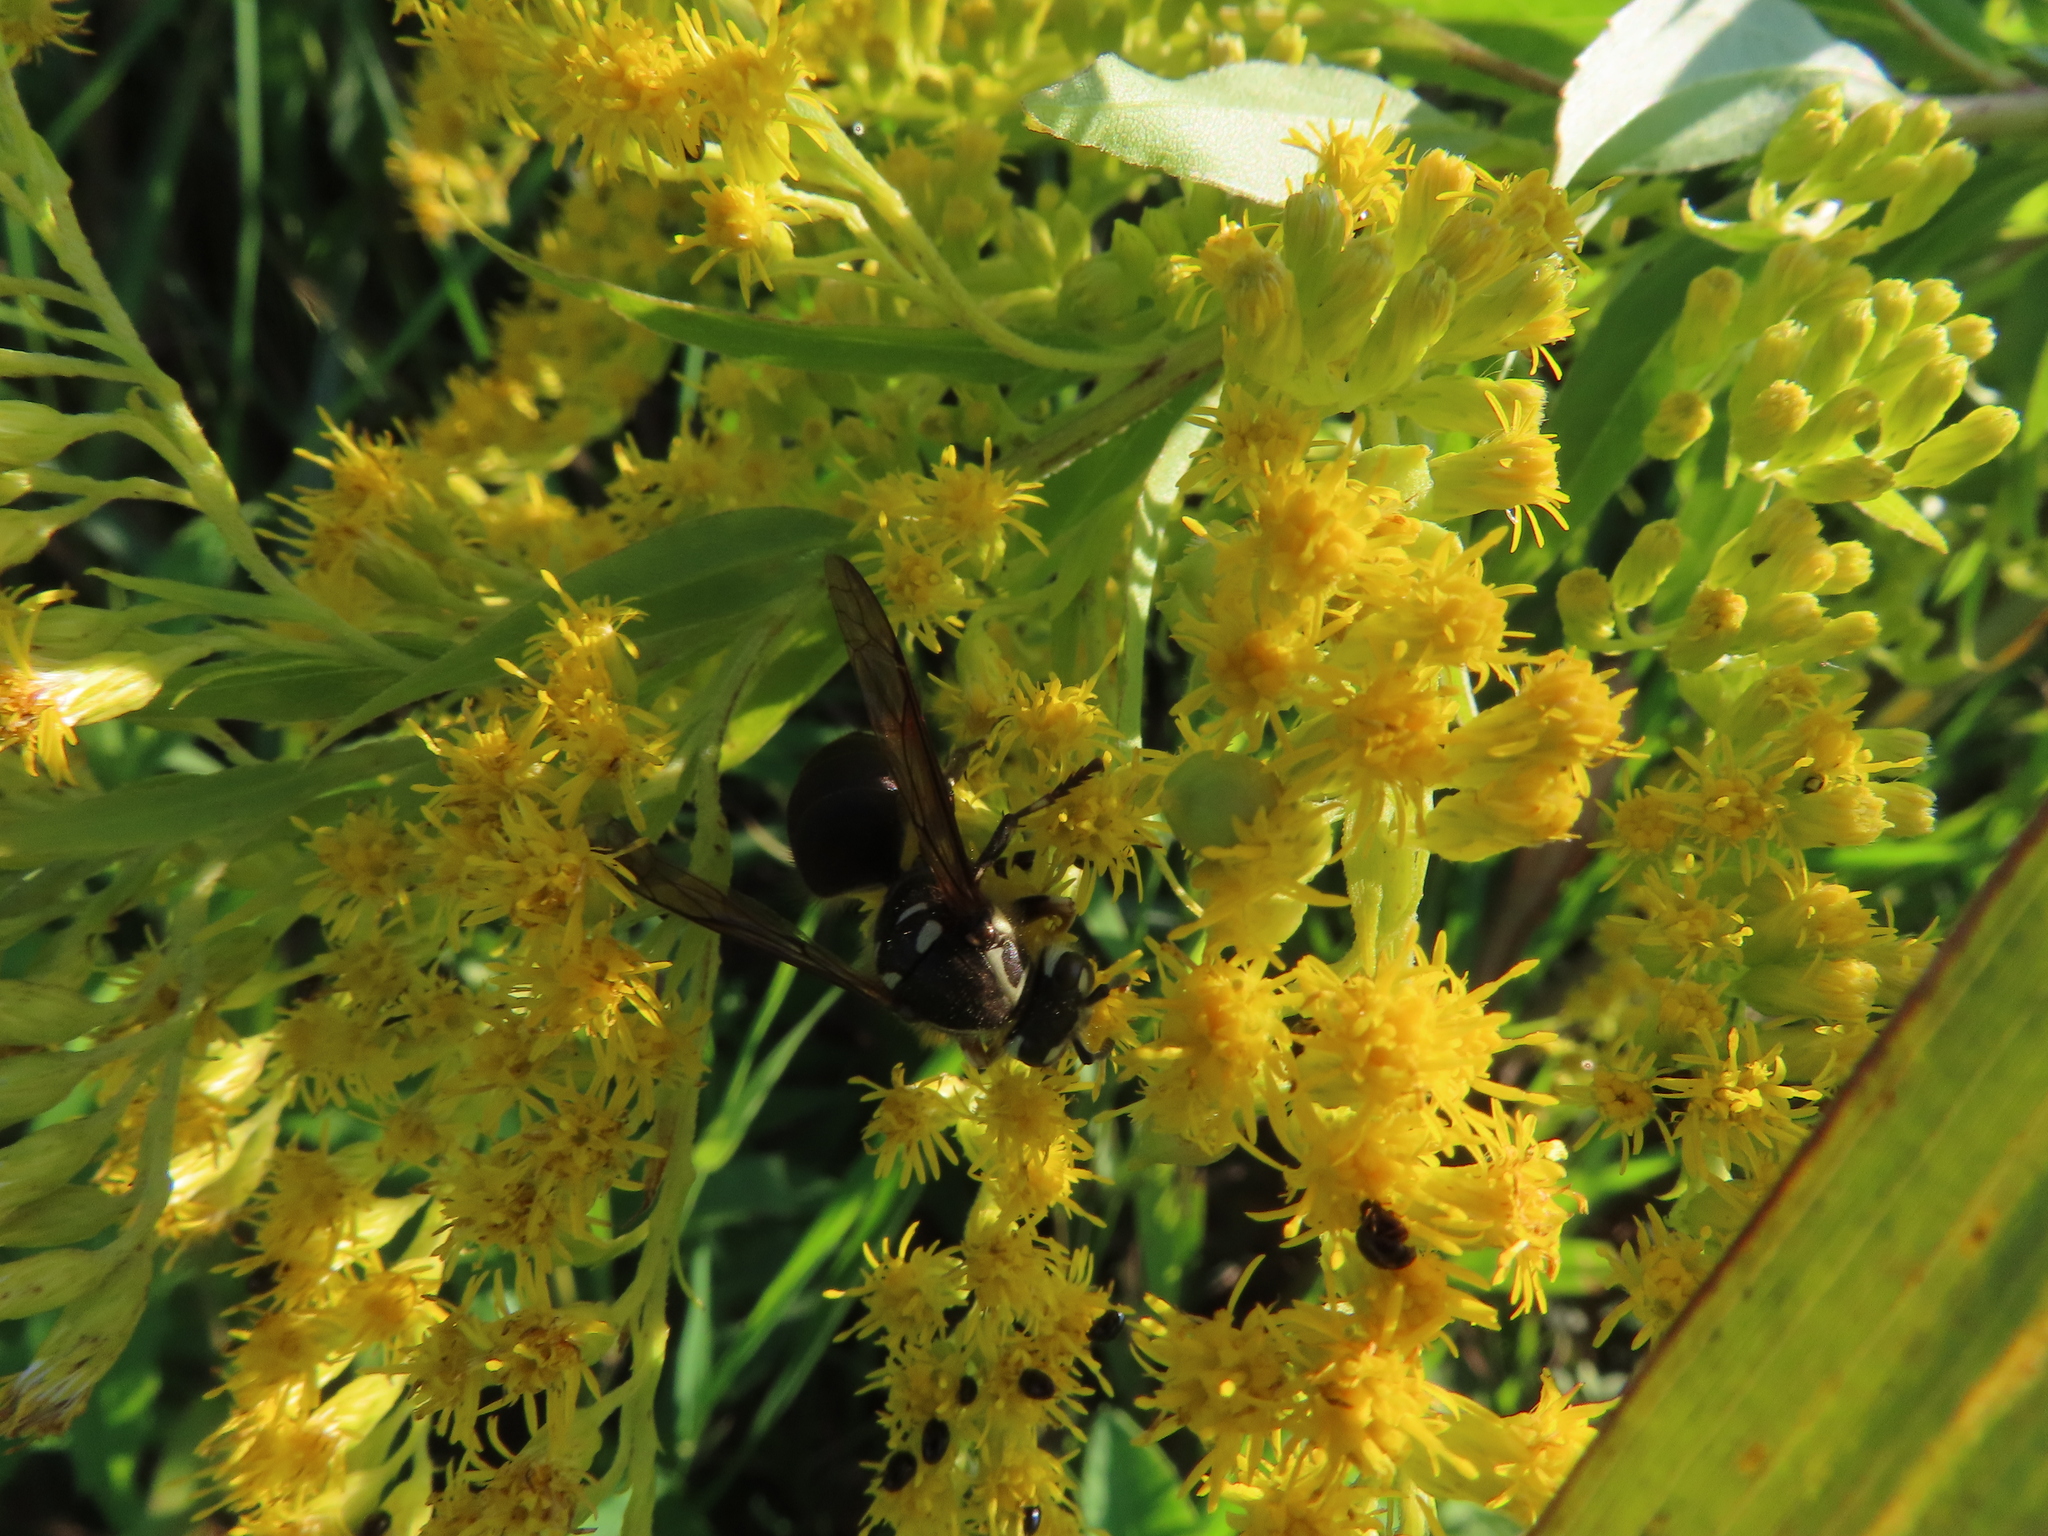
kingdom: Animalia
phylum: Arthropoda
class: Insecta
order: Hymenoptera
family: Vespidae
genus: Dolichovespula
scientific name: Dolichovespula maculata
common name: Bald-faced hornet
